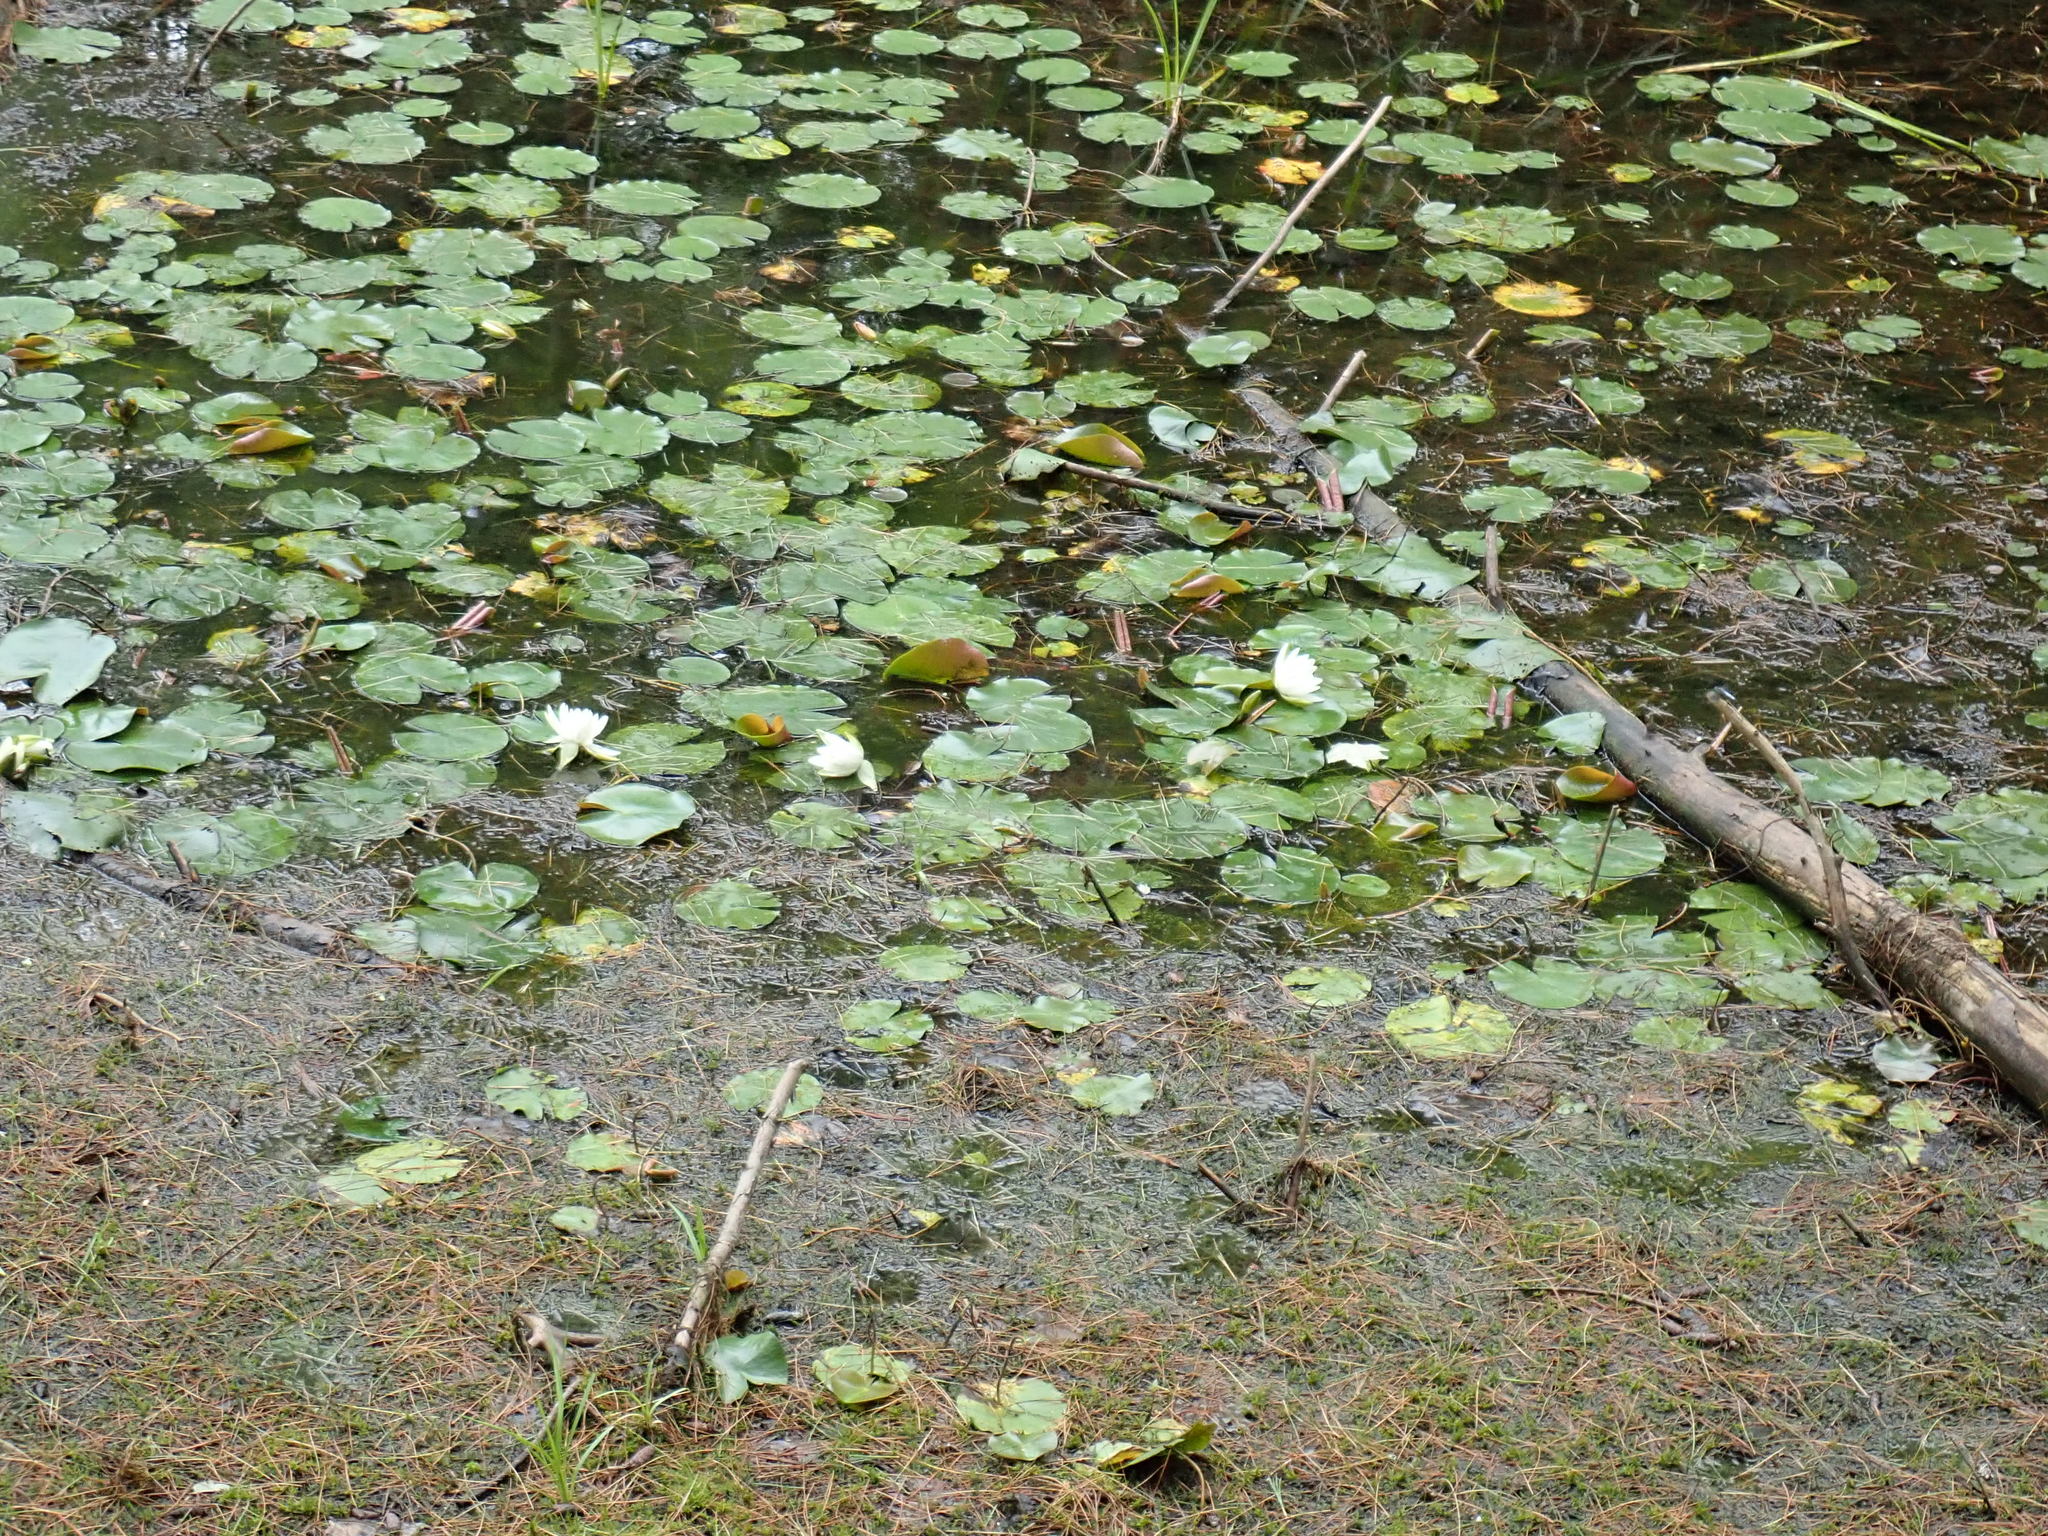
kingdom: Plantae
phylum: Tracheophyta
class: Magnoliopsida
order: Nymphaeales
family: Nymphaeaceae
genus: Nymphaea
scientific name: Nymphaea odorata
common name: Fragrant water-lily
